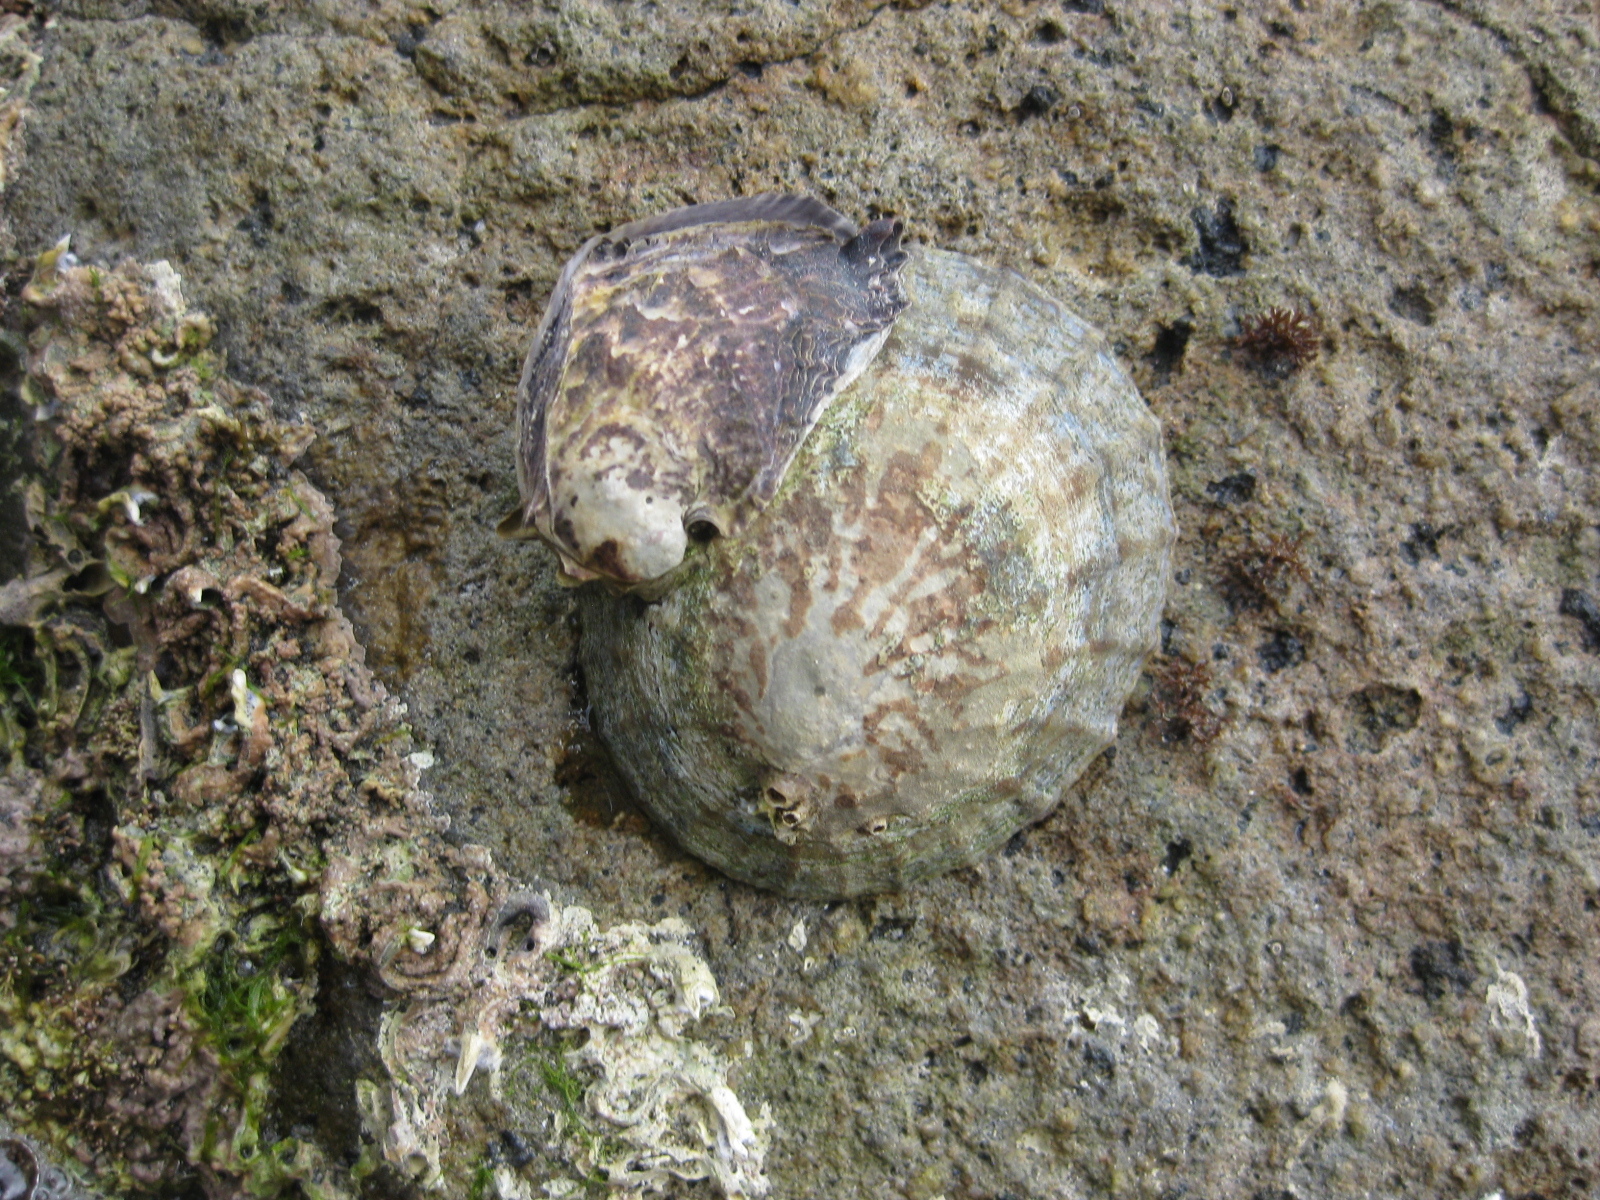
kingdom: Animalia
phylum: Mollusca
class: Bivalvia
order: Ostreida
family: Ostreidae
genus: Magallana
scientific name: Magallana gigas
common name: Pacific oyster
